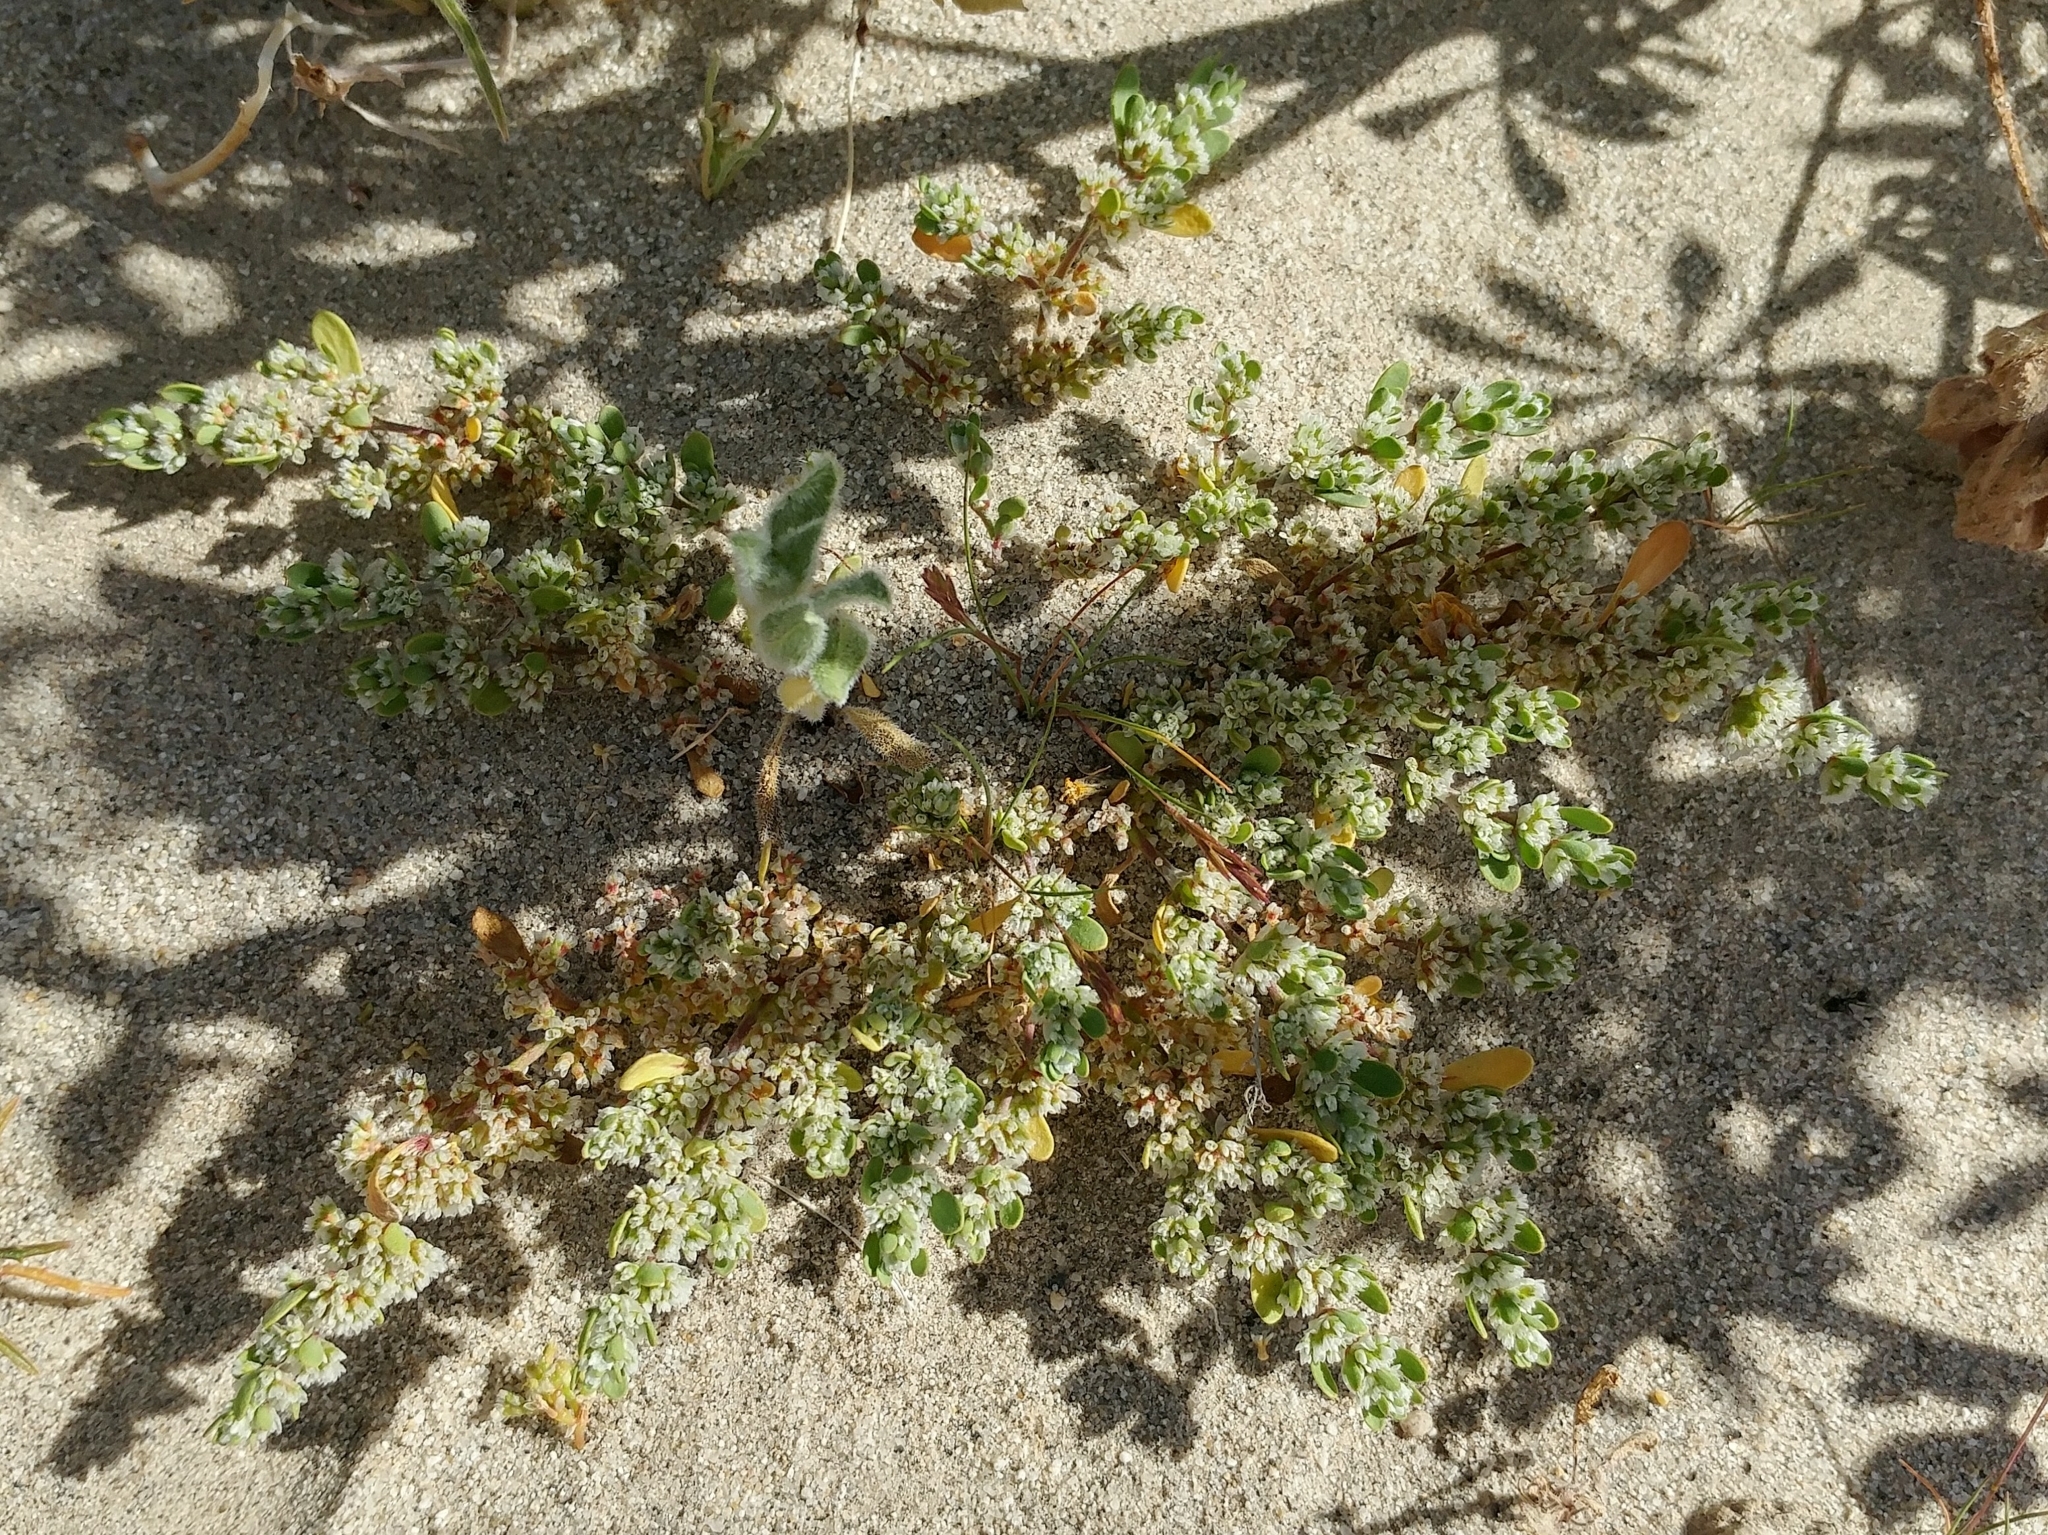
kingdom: Plantae
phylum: Tracheophyta
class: Magnoliopsida
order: Caryophyllales
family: Caryophyllaceae
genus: Achyronychia
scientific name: Achyronychia cooperi
